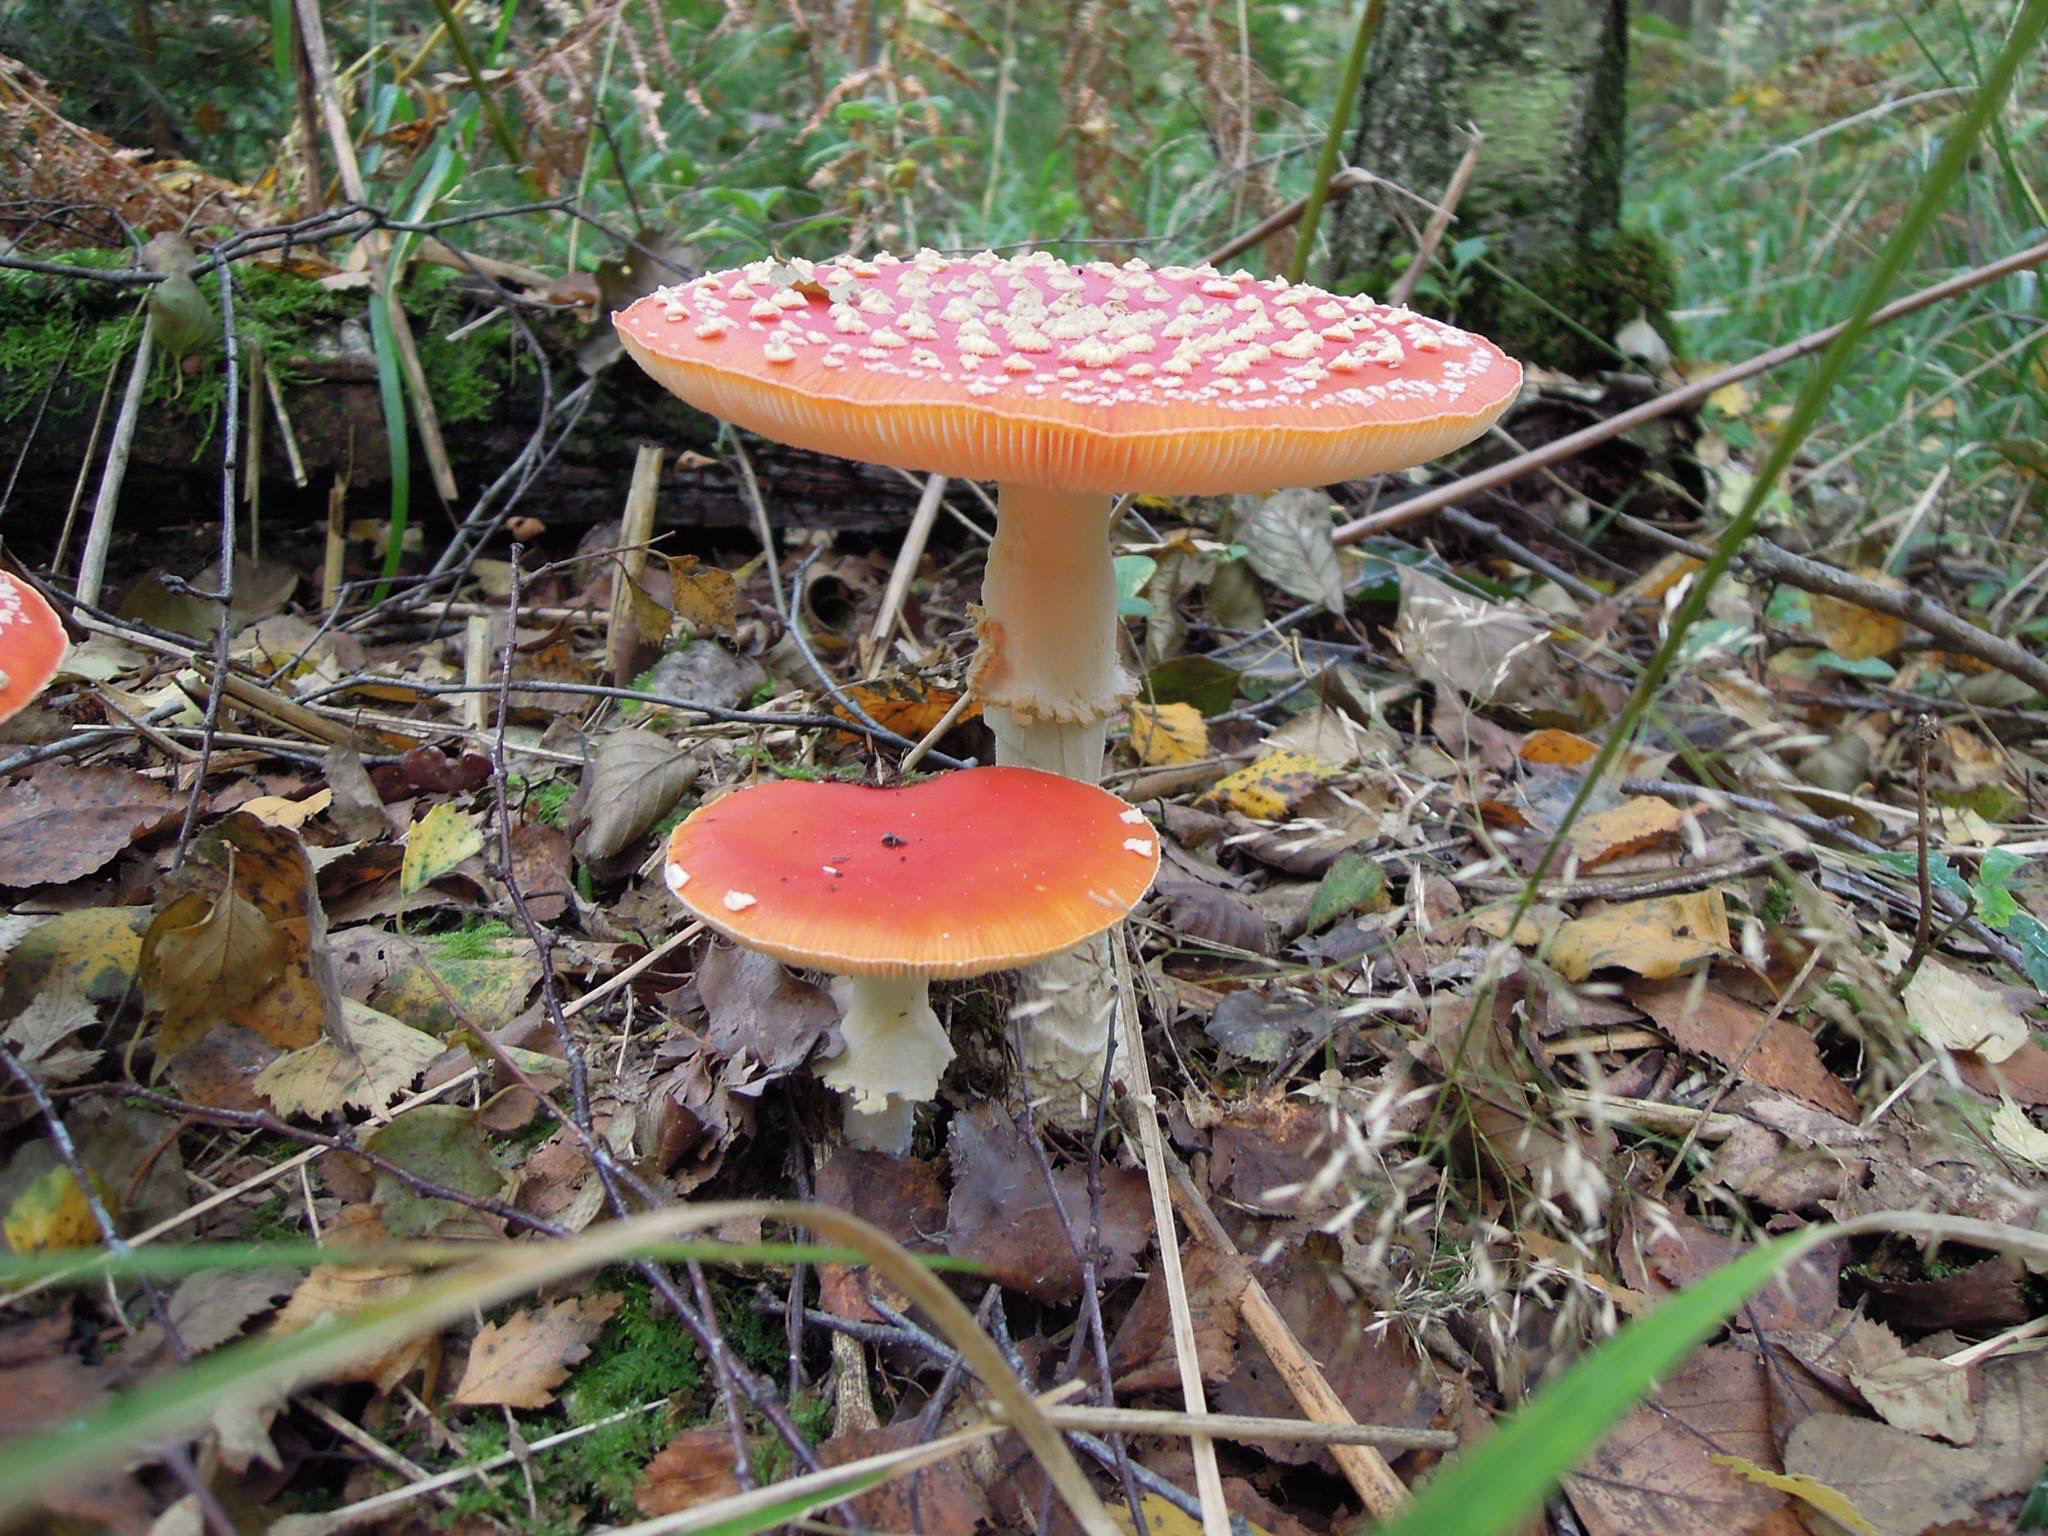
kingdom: Fungi
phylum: Basidiomycota
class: Agaricomycetes
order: Agaricales
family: Amanitaceae
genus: Amanita
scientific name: Amanita muscaria
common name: Fly agaric
